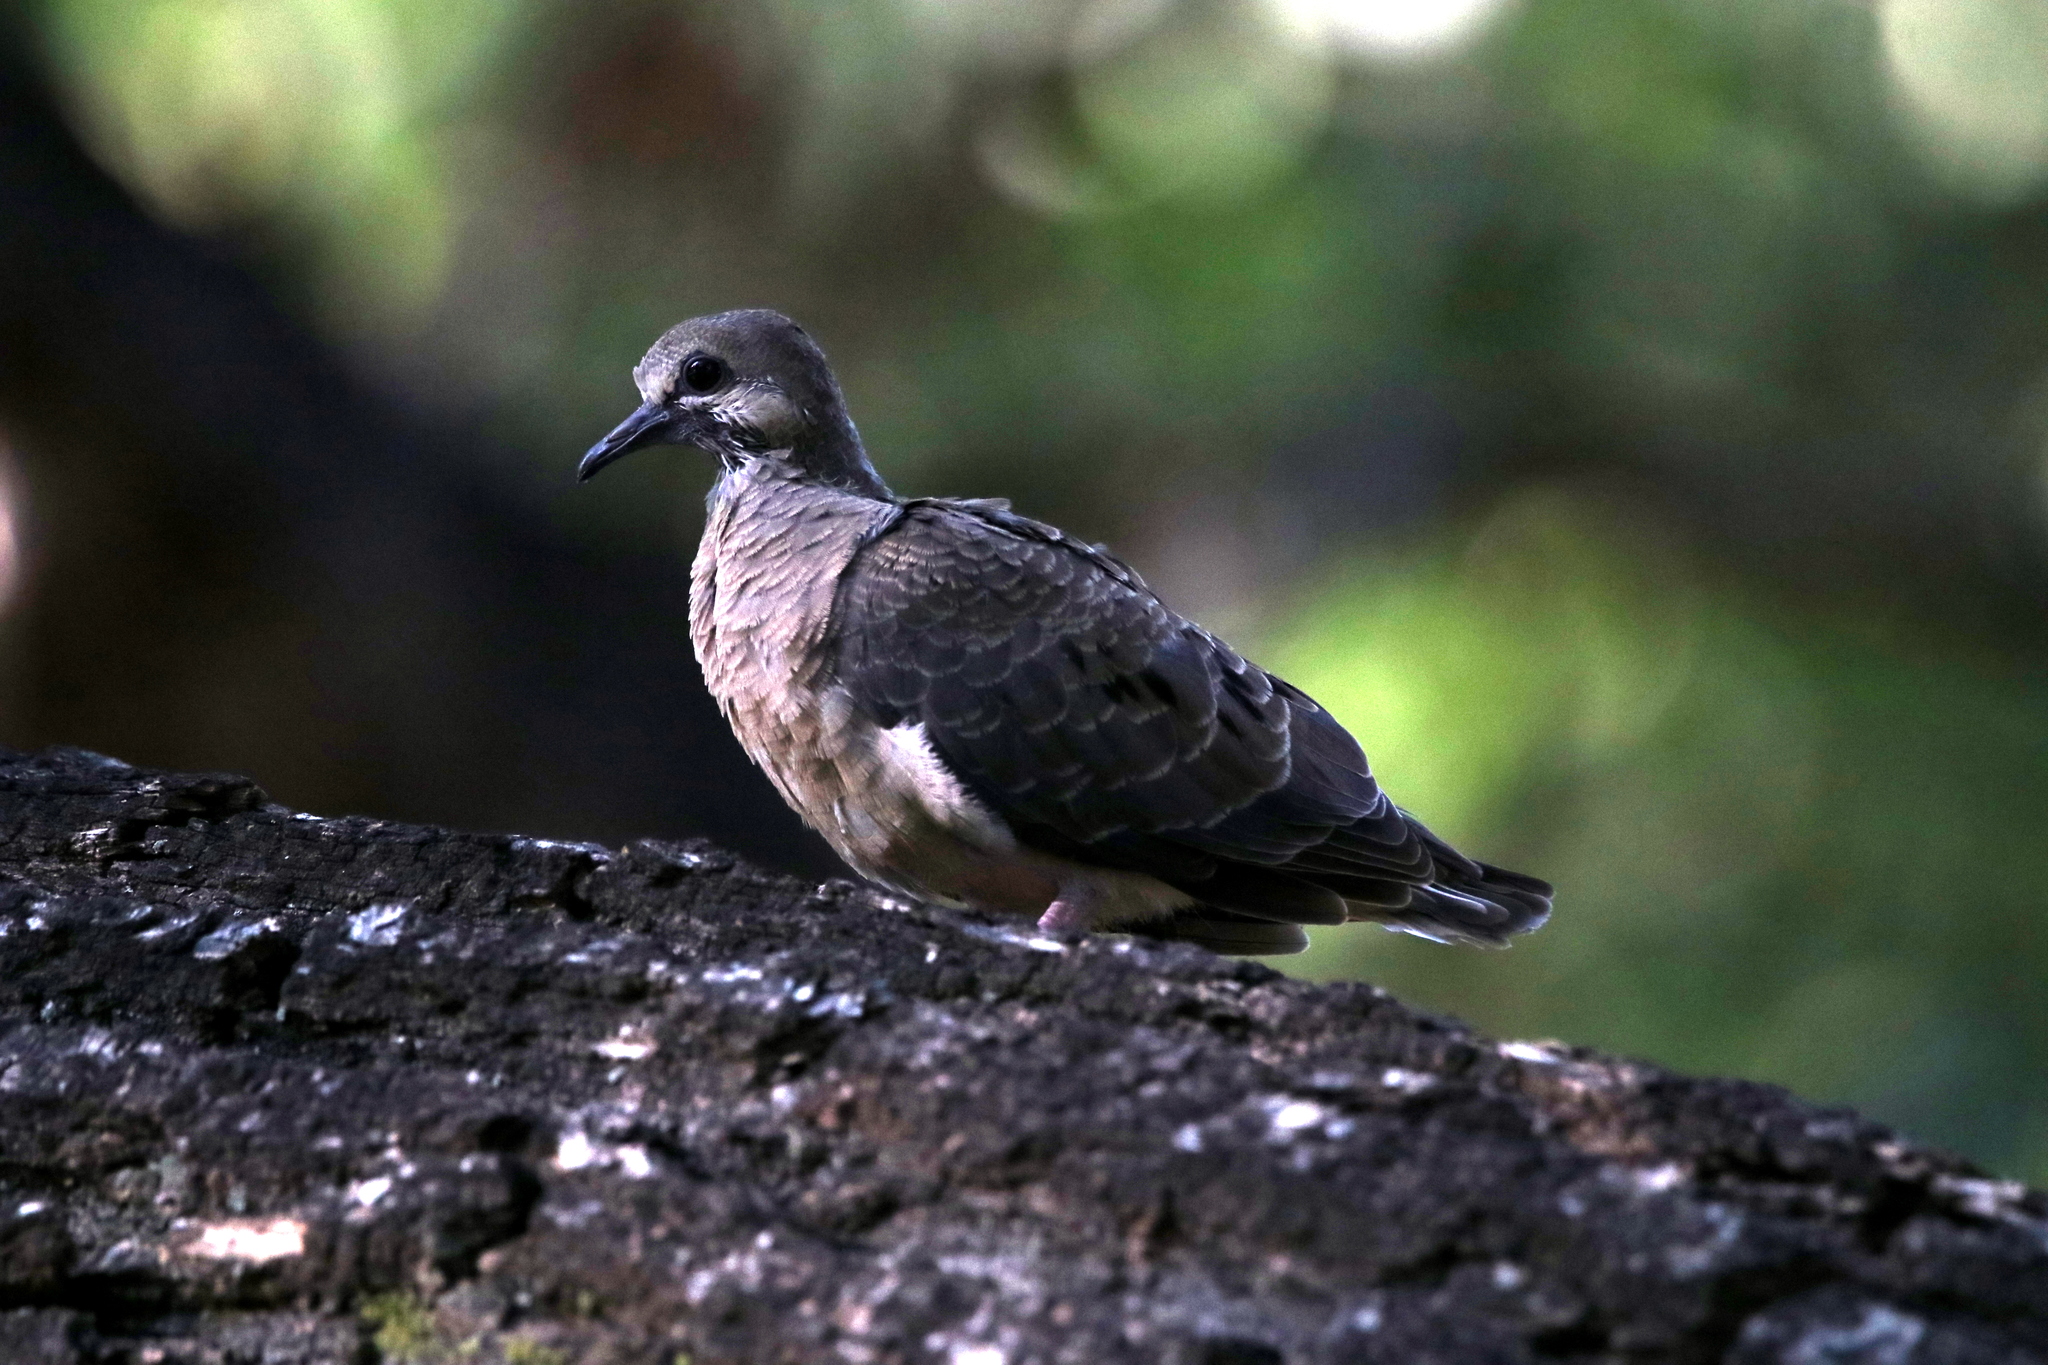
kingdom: Animalia
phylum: Chordata
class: Aves
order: Columbiformes
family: Columbidae
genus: Zenaida
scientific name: Zenaida asiatica
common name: White-winged dove
